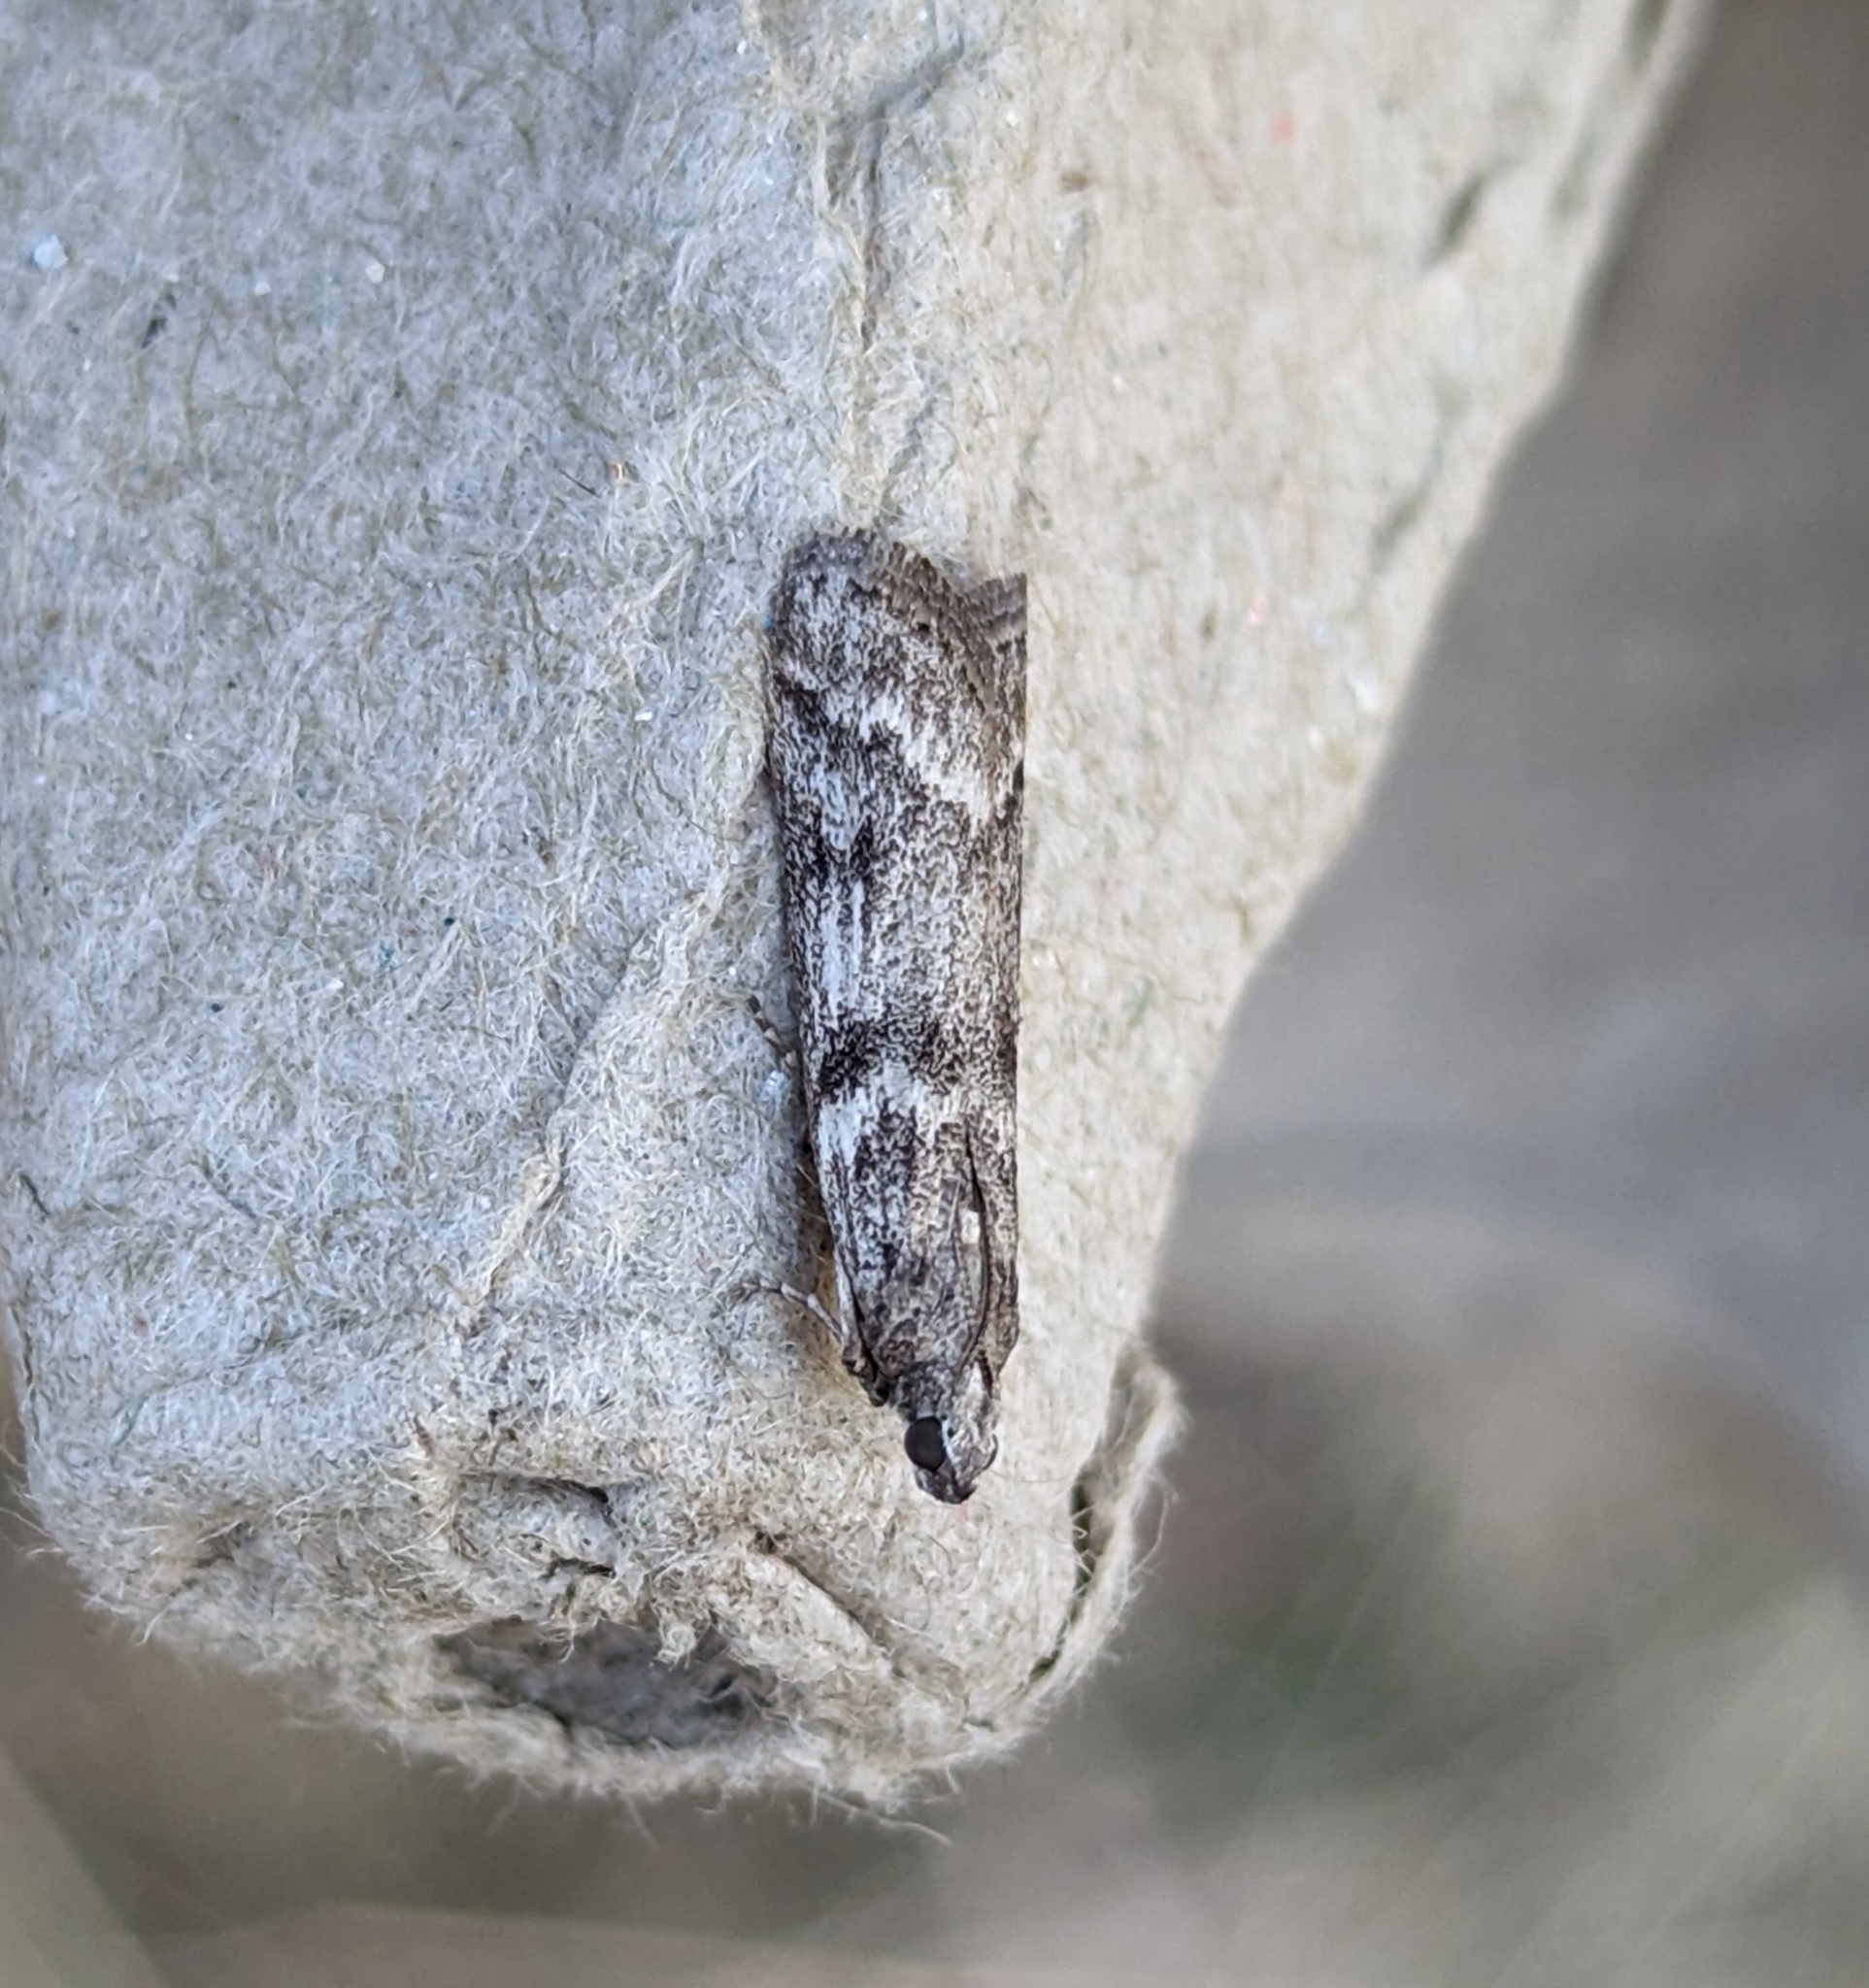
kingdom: Animalia
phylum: Arthropoda
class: Insecta
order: Lepidoptera
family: Pyralidae
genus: Zophodia
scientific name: Zophodia convolutella
